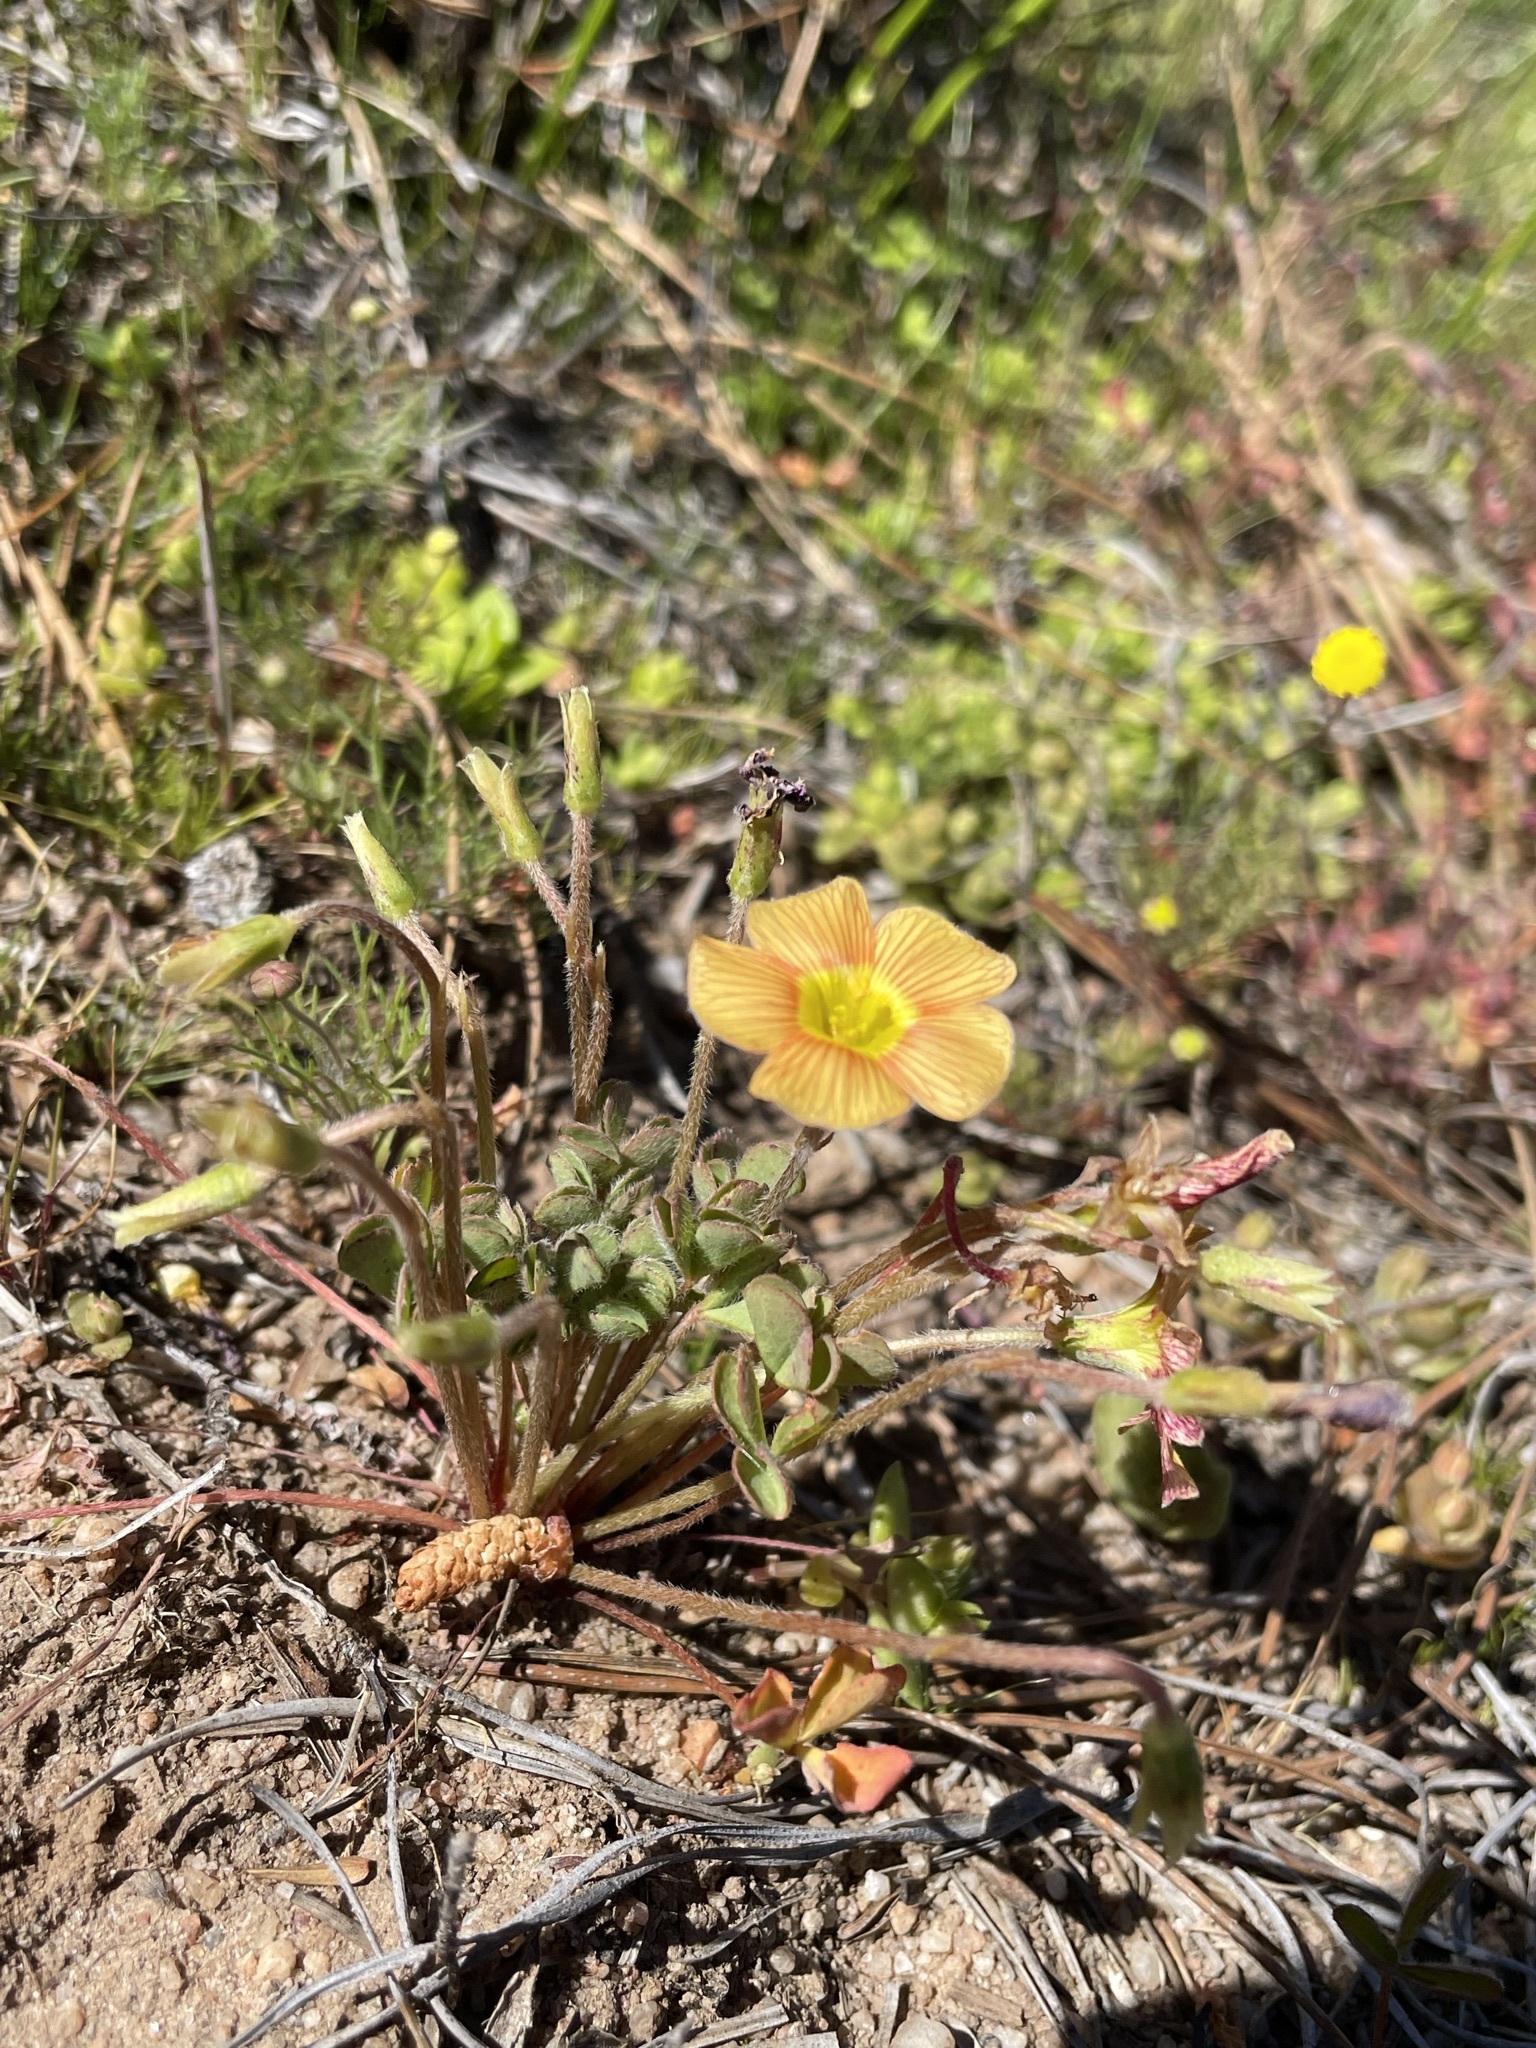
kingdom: Plantae
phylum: Tracheophyta
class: Magnoliopsida
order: Oxalidales
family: Oxalidaceae
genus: Oxalis
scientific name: Oxalis obtusa
